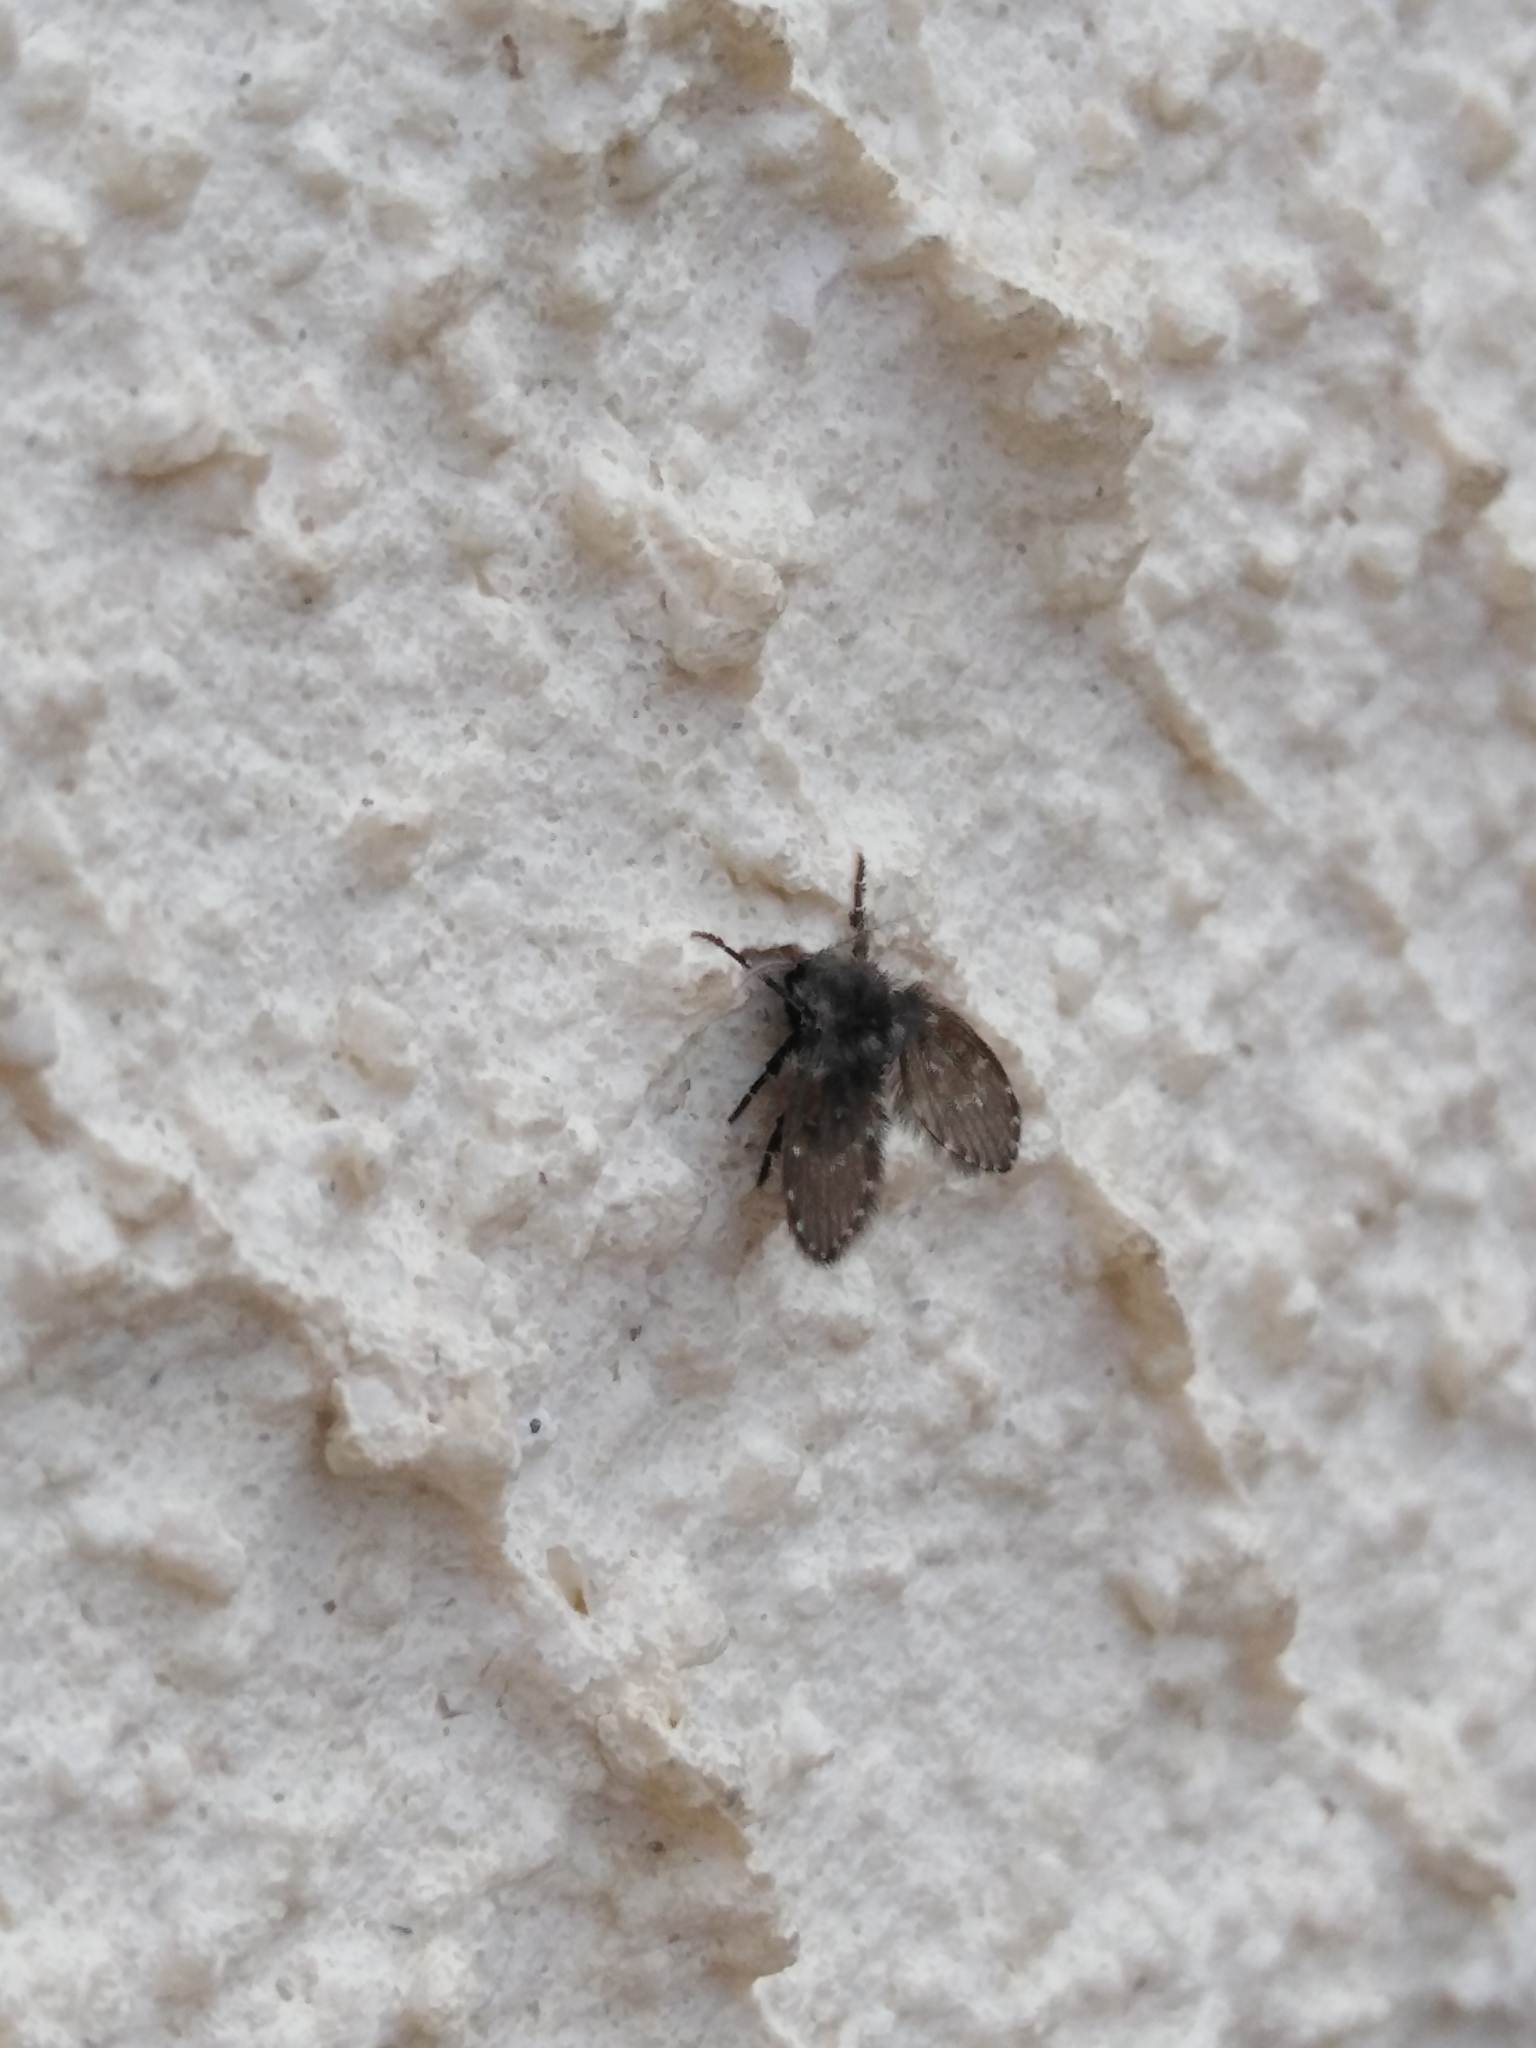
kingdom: Animalia
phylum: Arthropoda
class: Insecta
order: Diptera
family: Psychodidae
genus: Clogmia
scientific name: Clogmia albipunctatus
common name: White-spotted moth fly
